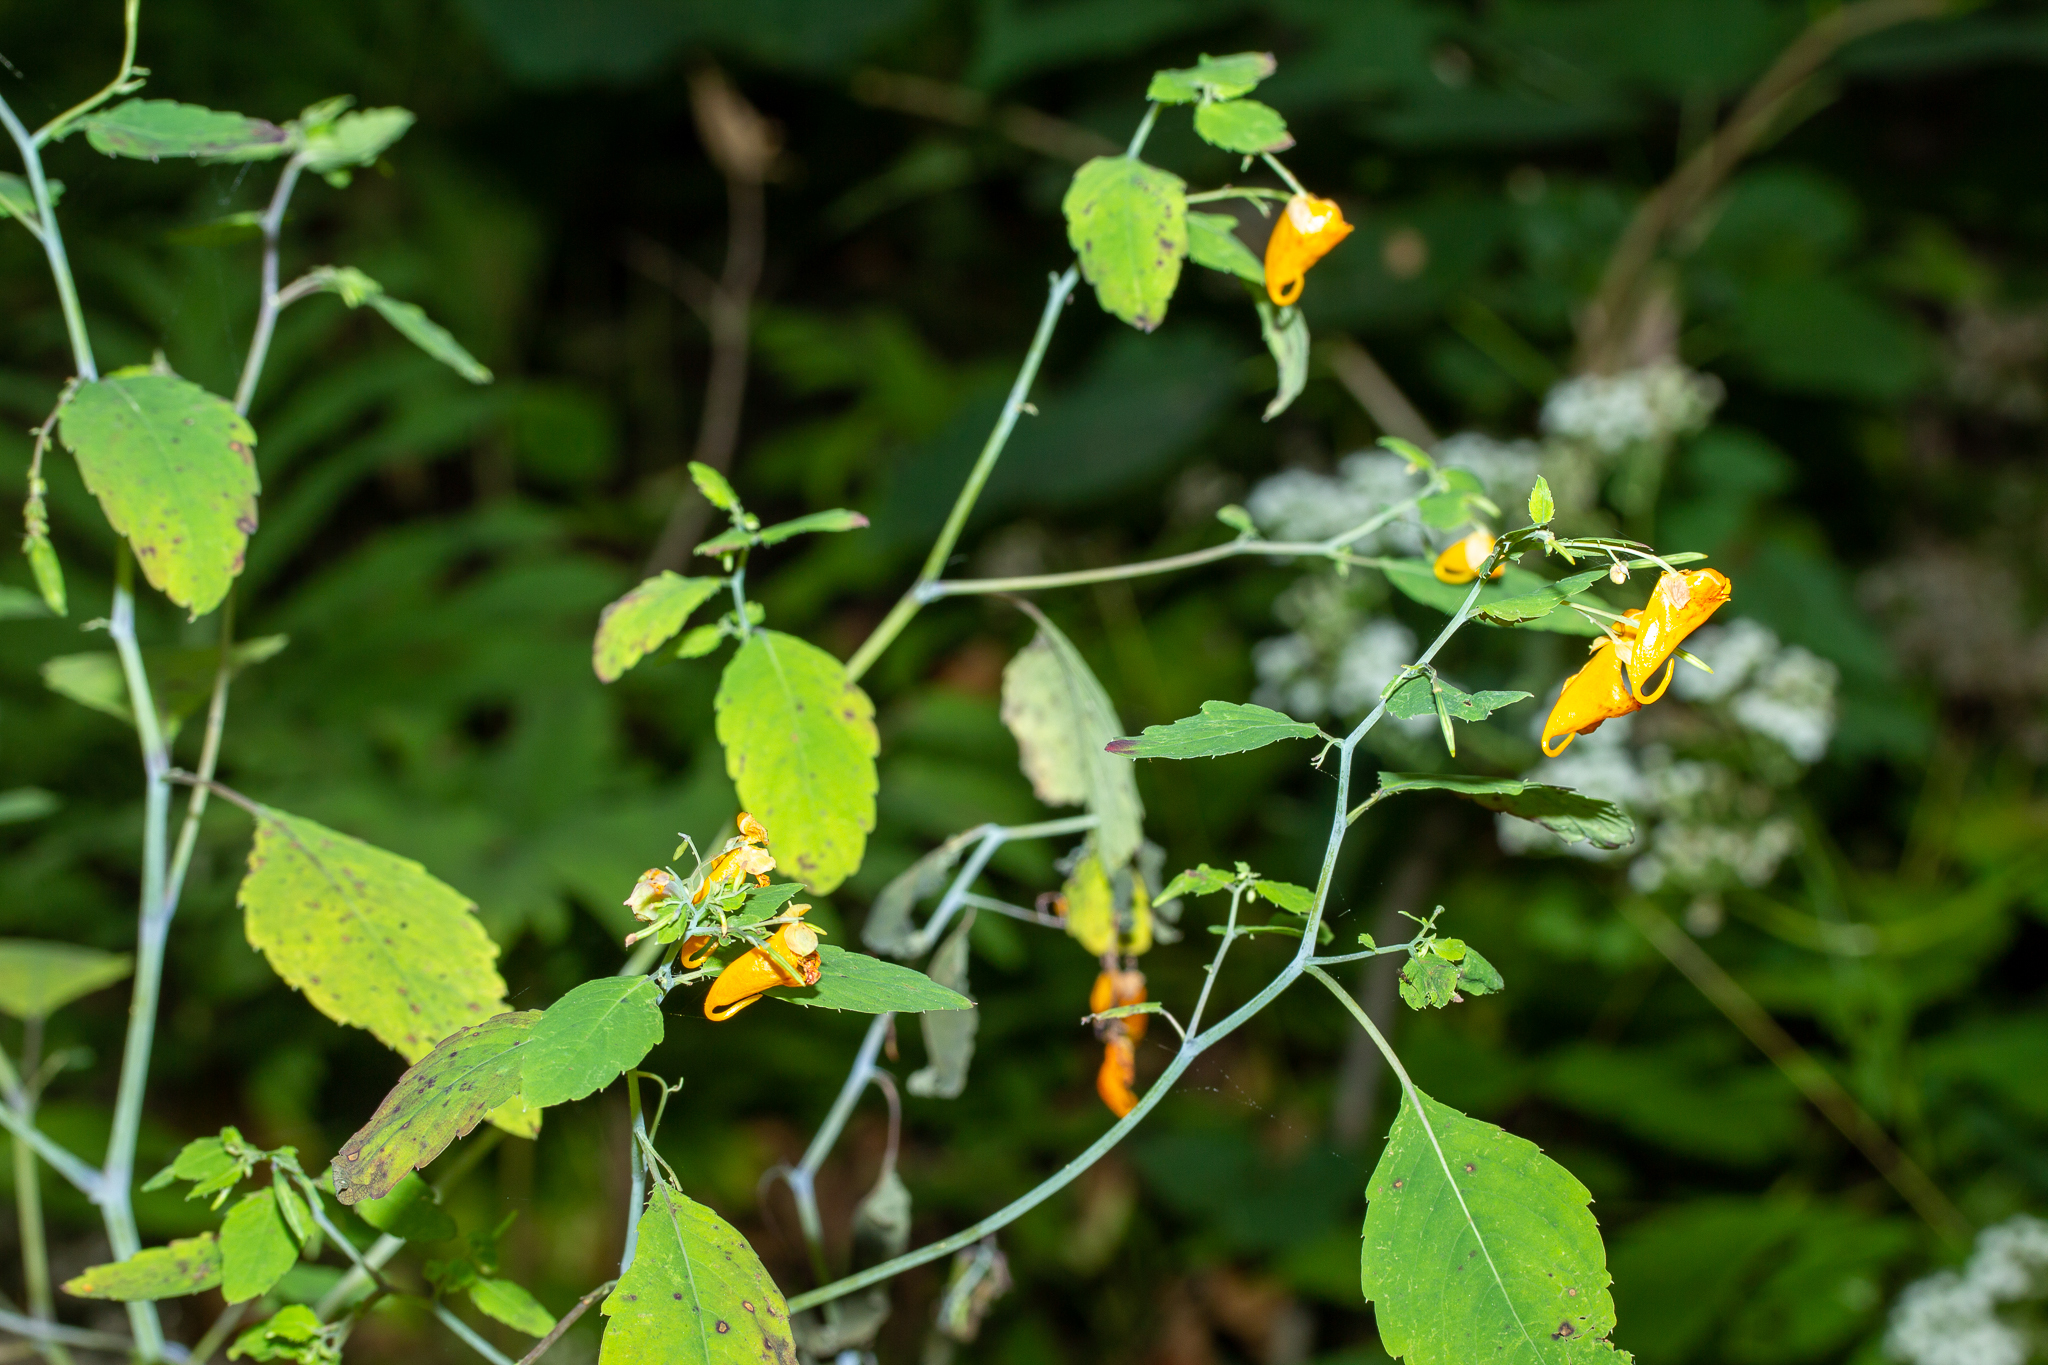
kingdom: Plantae
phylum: Tracheophyta
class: Magnoliopsida
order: Ericales
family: Balsaminaceae
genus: Impatiens
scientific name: Impatiens capensis
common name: Orange balsam
